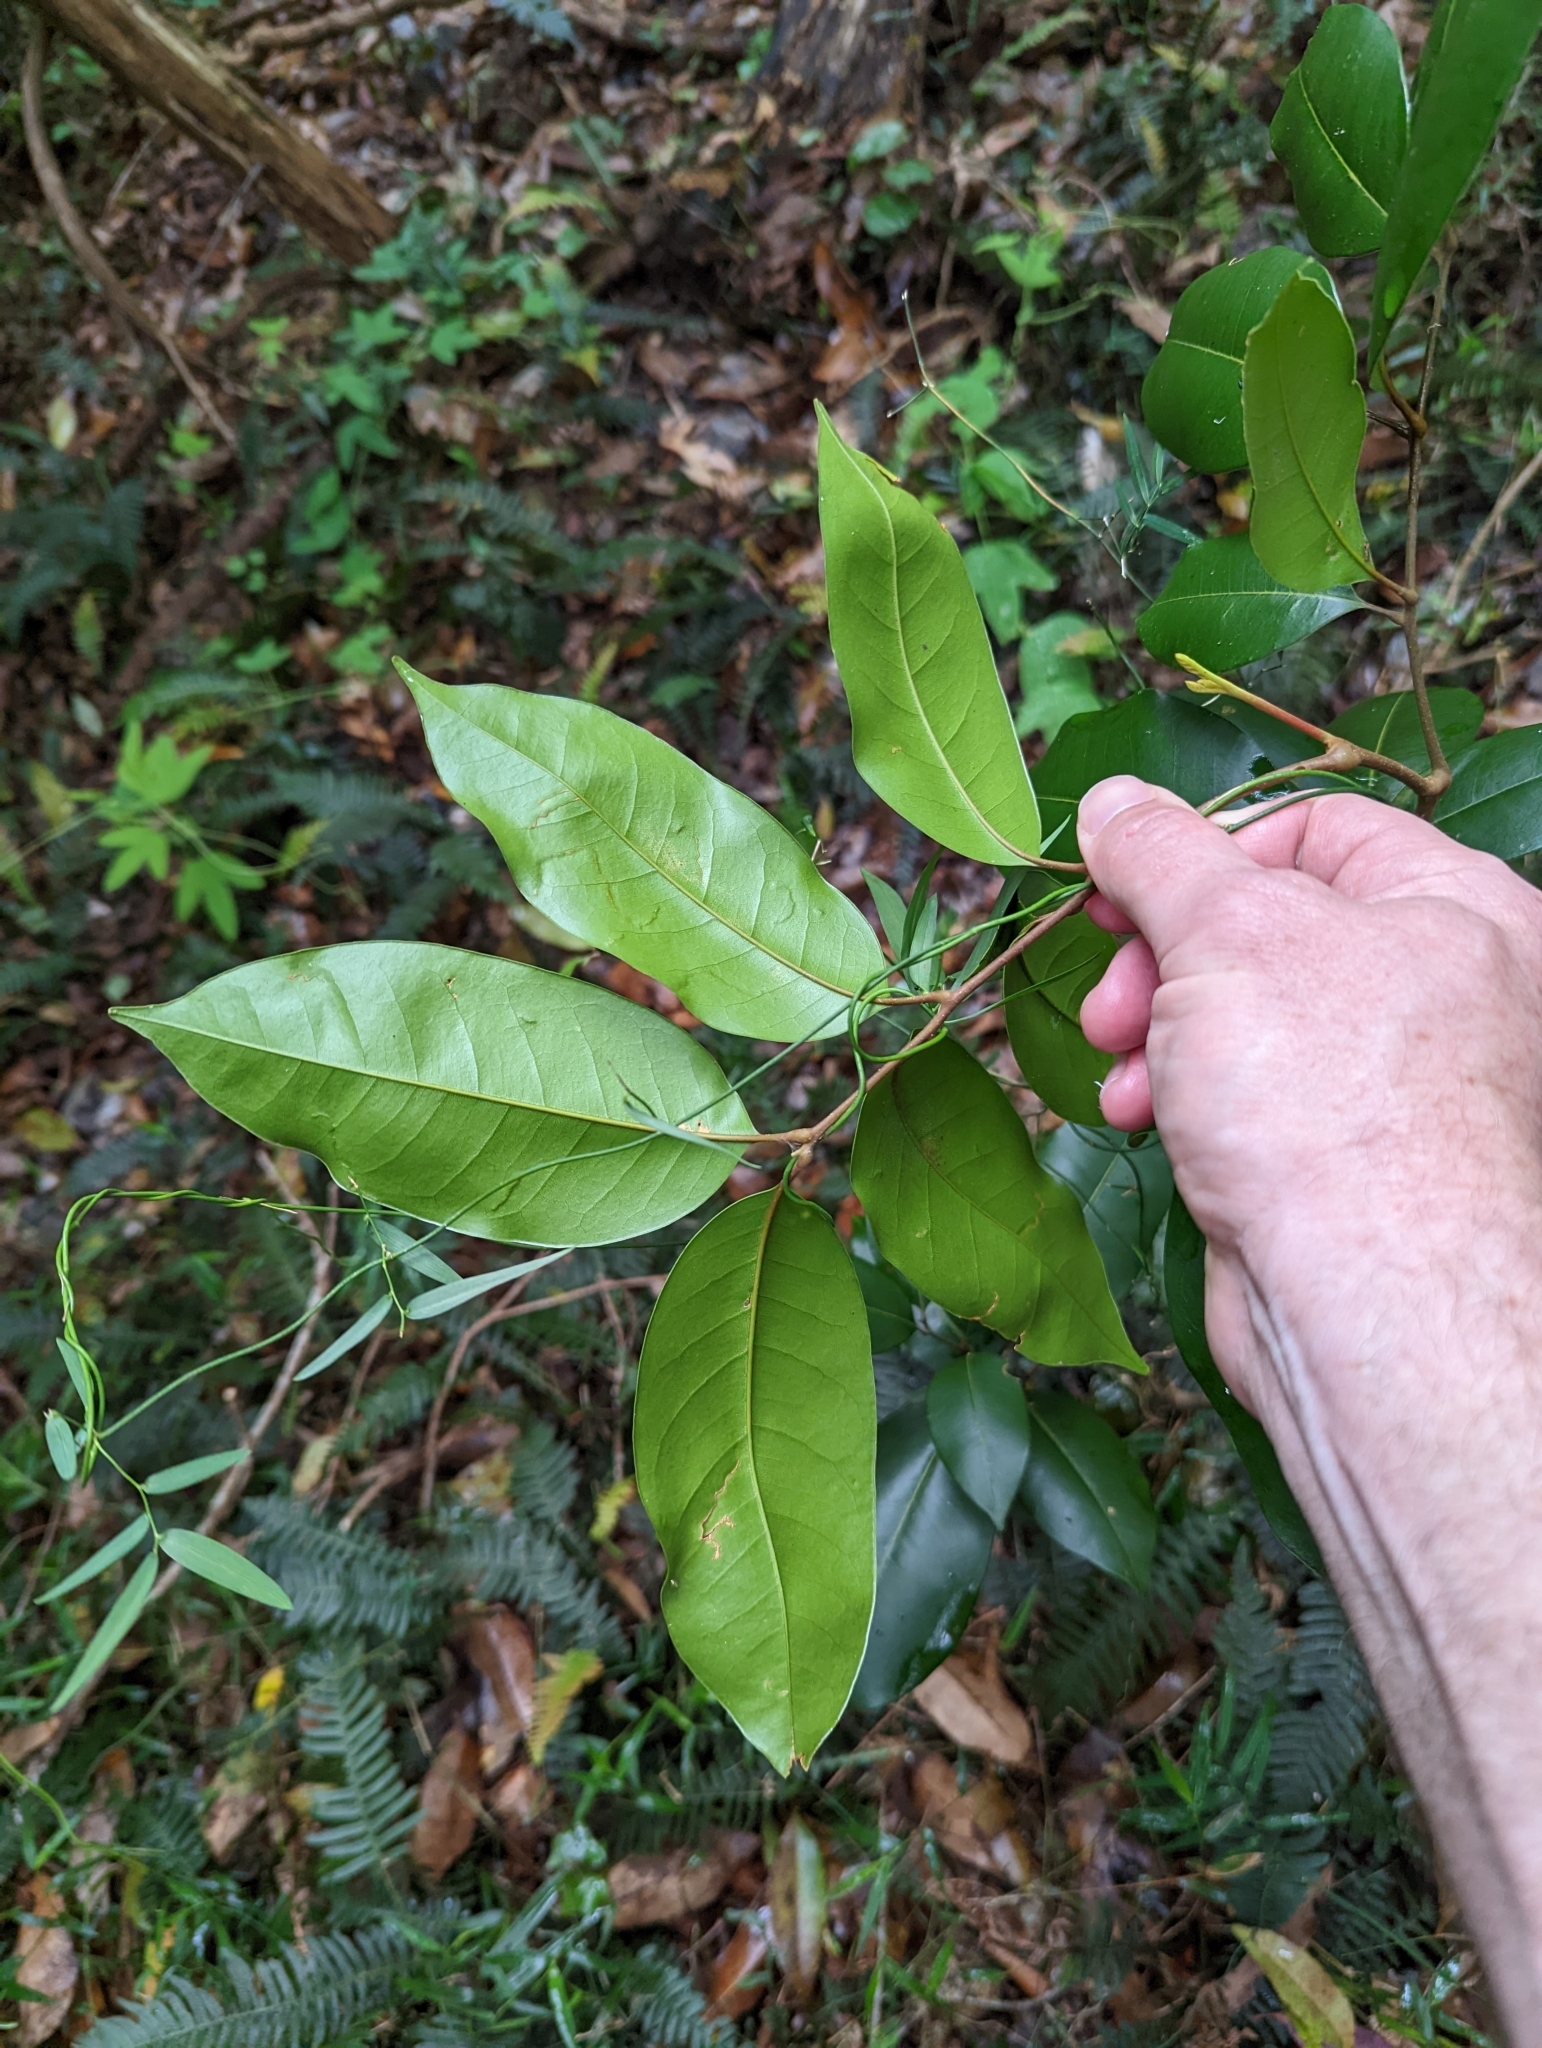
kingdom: Plantae
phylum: Tracheophyta
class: Magnoliopsida
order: Sapindales
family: Sapindaceae
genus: Mischocarpus
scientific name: Mischocarpus pyriformis
